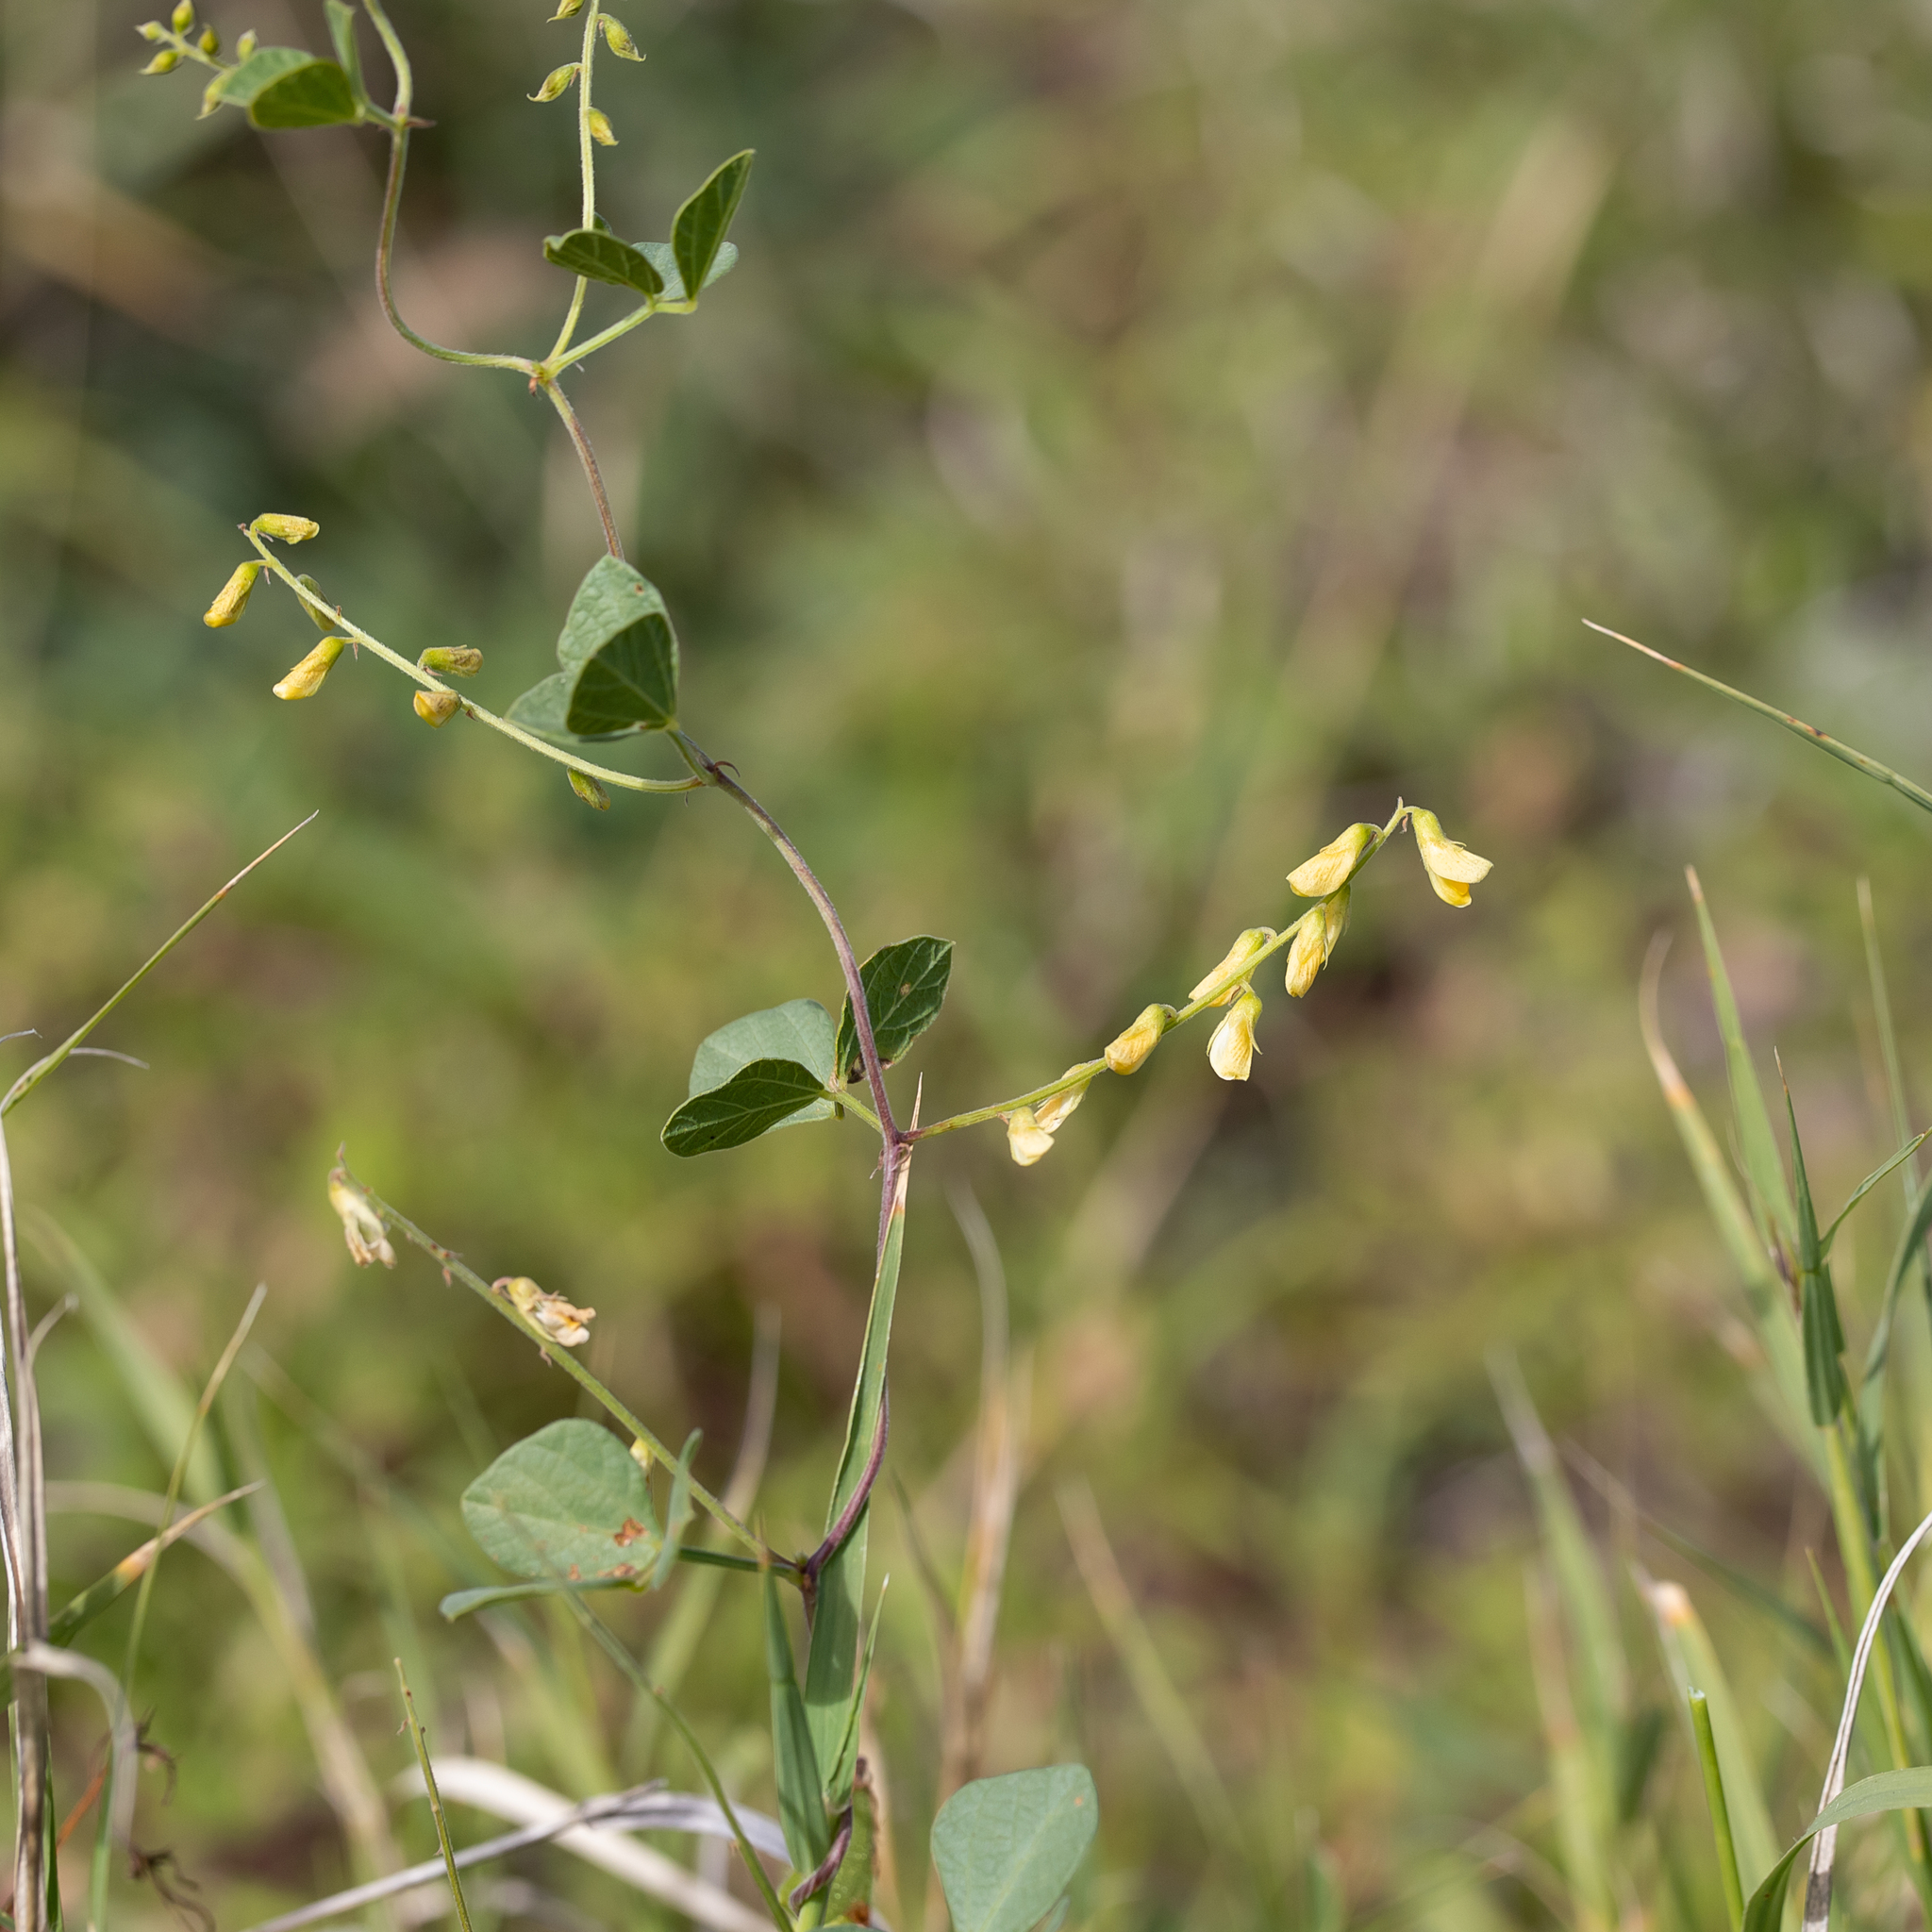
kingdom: Plantae
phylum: Tracheophyta
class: Magnoliopsida
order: Fabales
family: Fabaceae
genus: Rhynchosia
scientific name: Rhynchosia minima
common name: Least snoutbean
